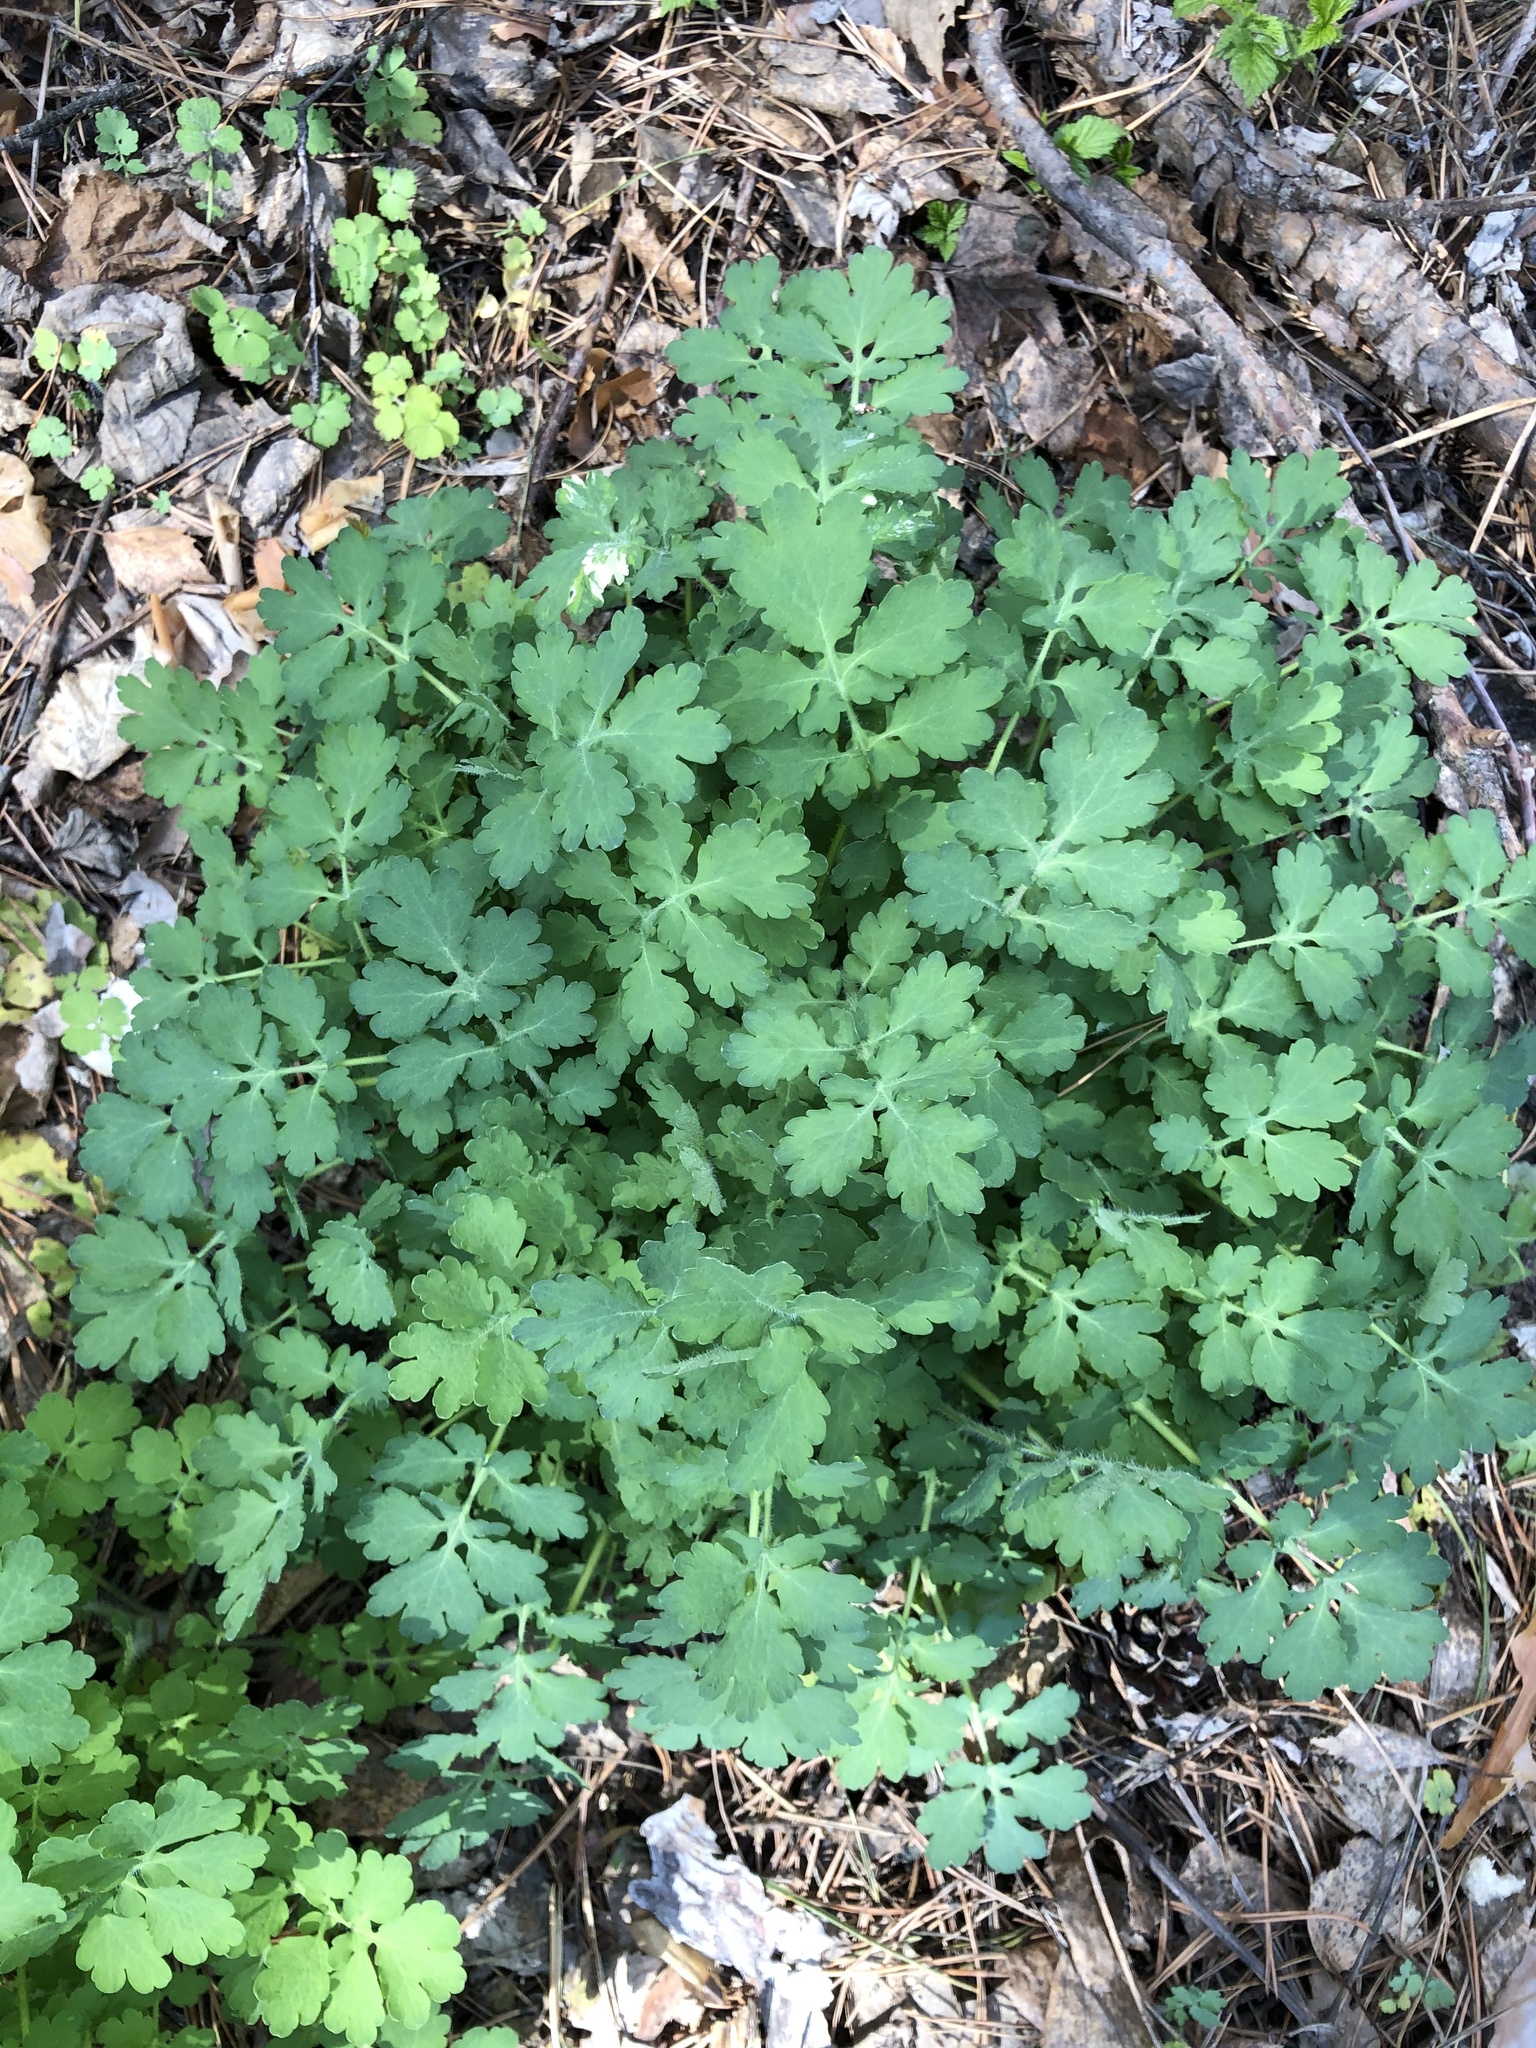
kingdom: Plantae
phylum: Tracheophyta
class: Magnoliopsida
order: Ranunculales
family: Papaveraceae
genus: Chelidonium
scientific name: Chelidonium majus
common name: Greater celandine
